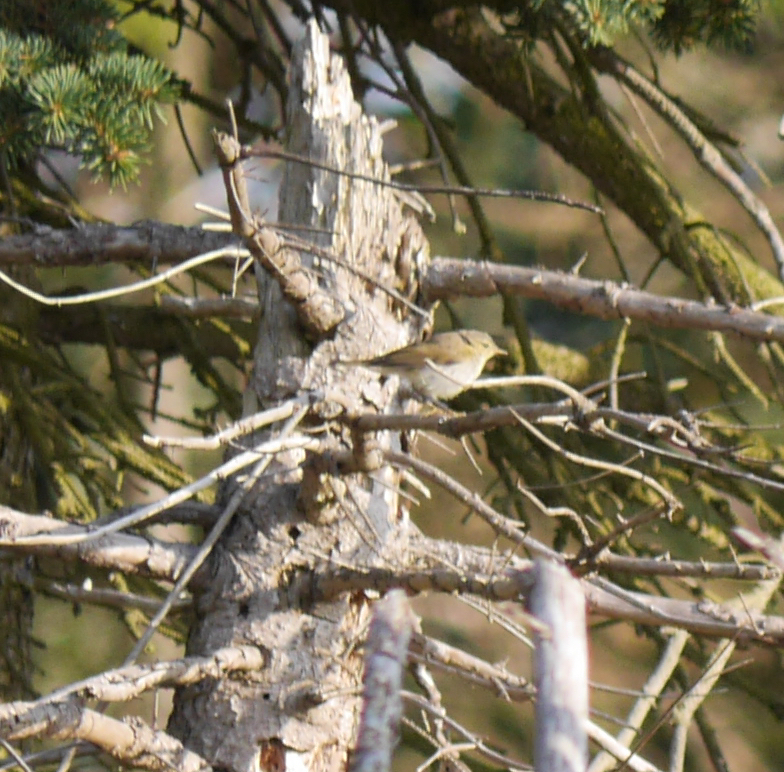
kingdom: Animalia
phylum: Chordata
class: Aves
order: Passeriformes
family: Phylloscopidae
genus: Phylloscopus
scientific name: Phylloscopus collybita
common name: Common chiffchaff
